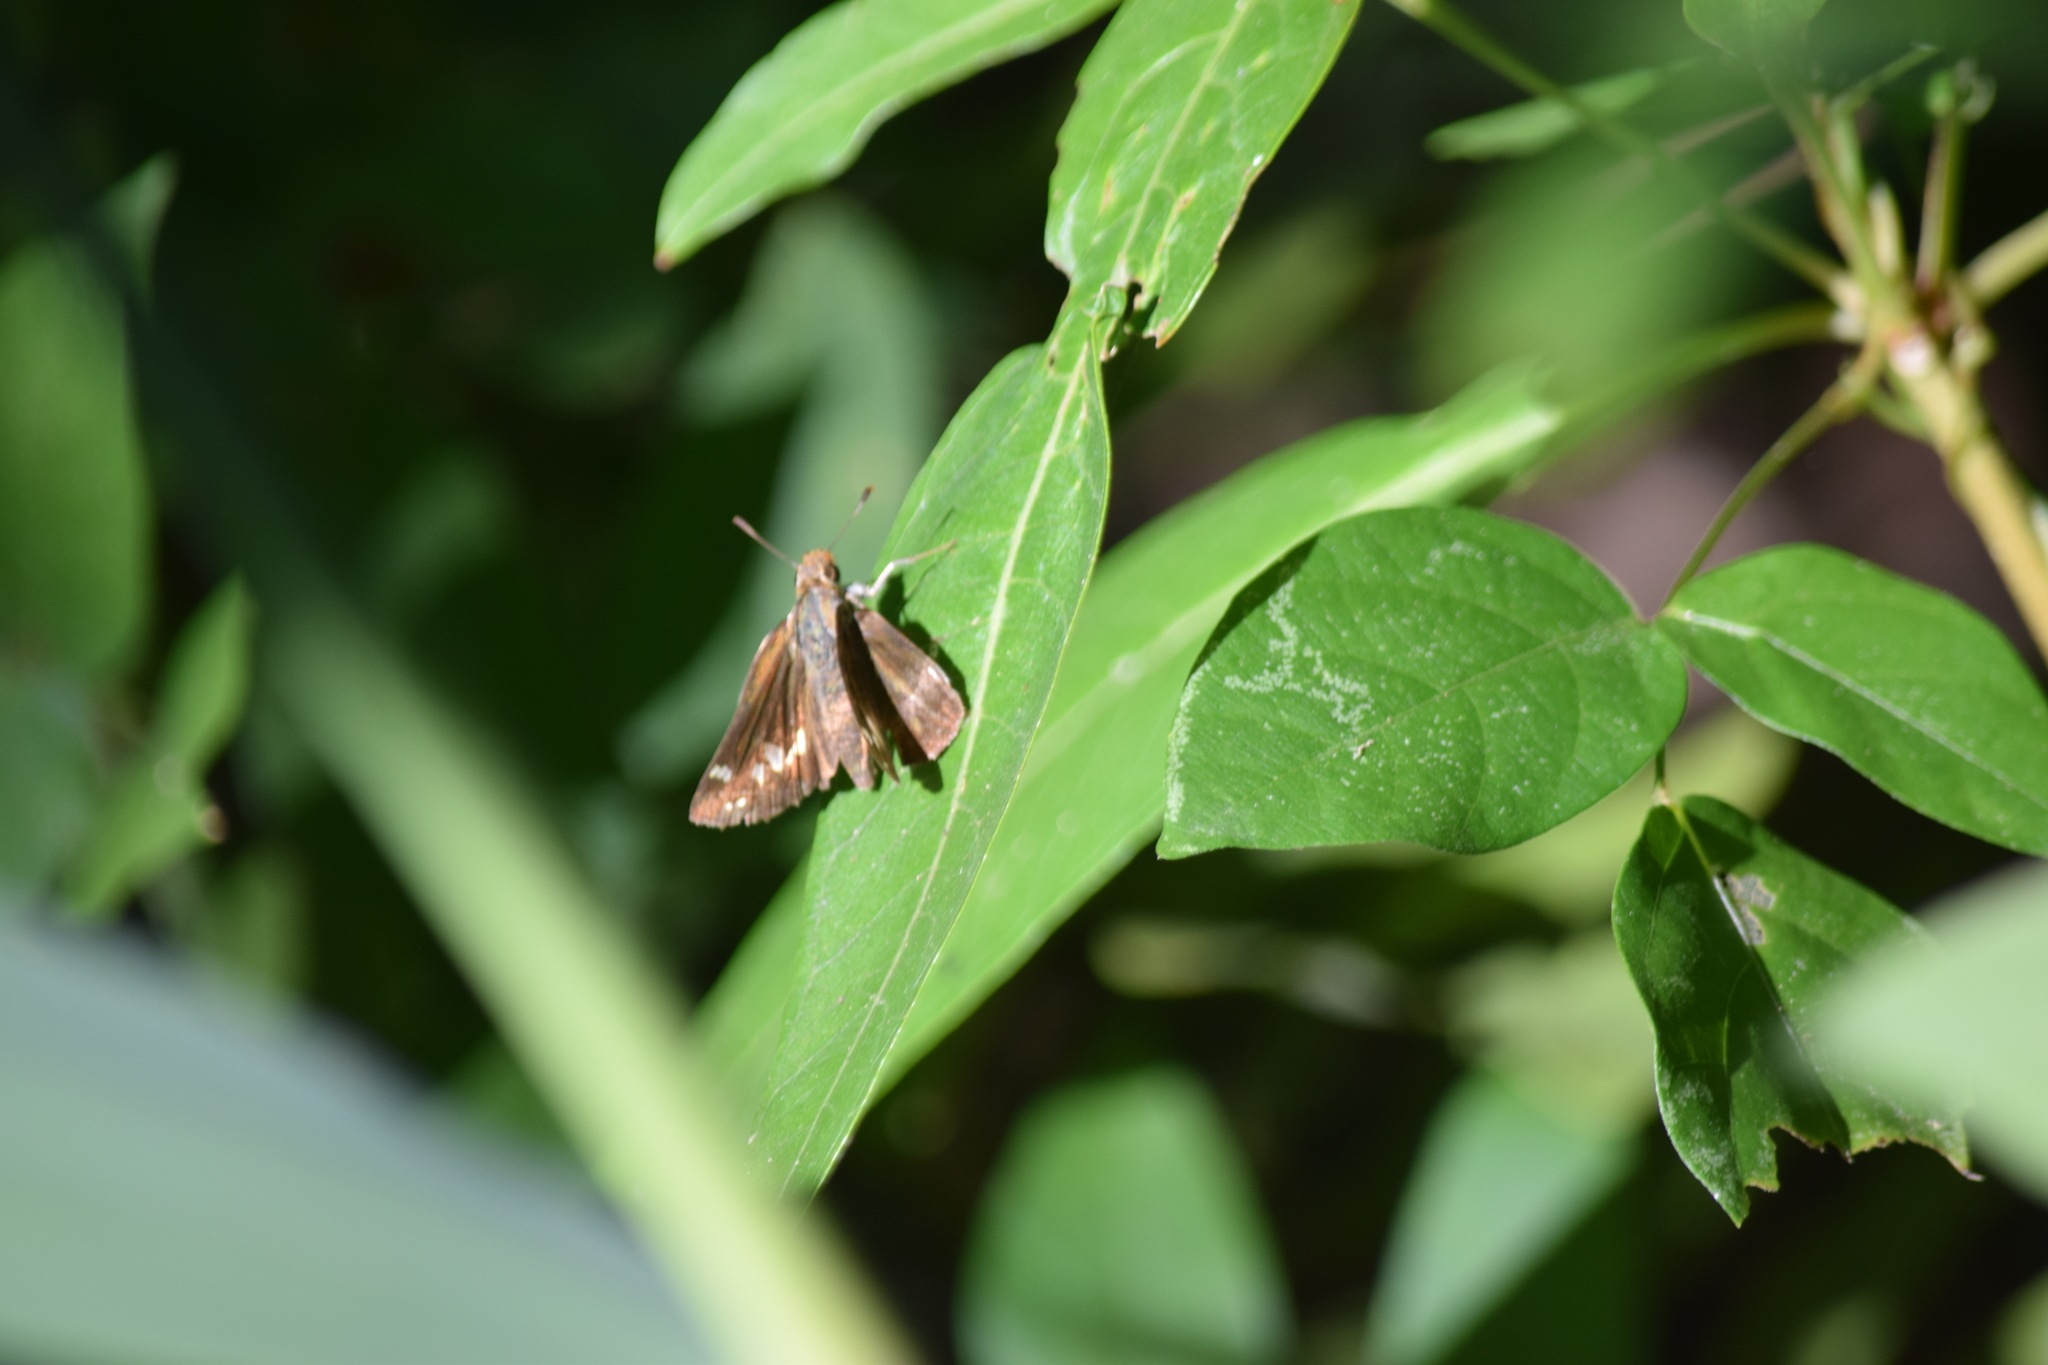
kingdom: Animalia
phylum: Arthropoda
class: Insecta
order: Lepidoptera
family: Hesperiidae
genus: Lon
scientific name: Lon zabulon
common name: Zabulon skipper
